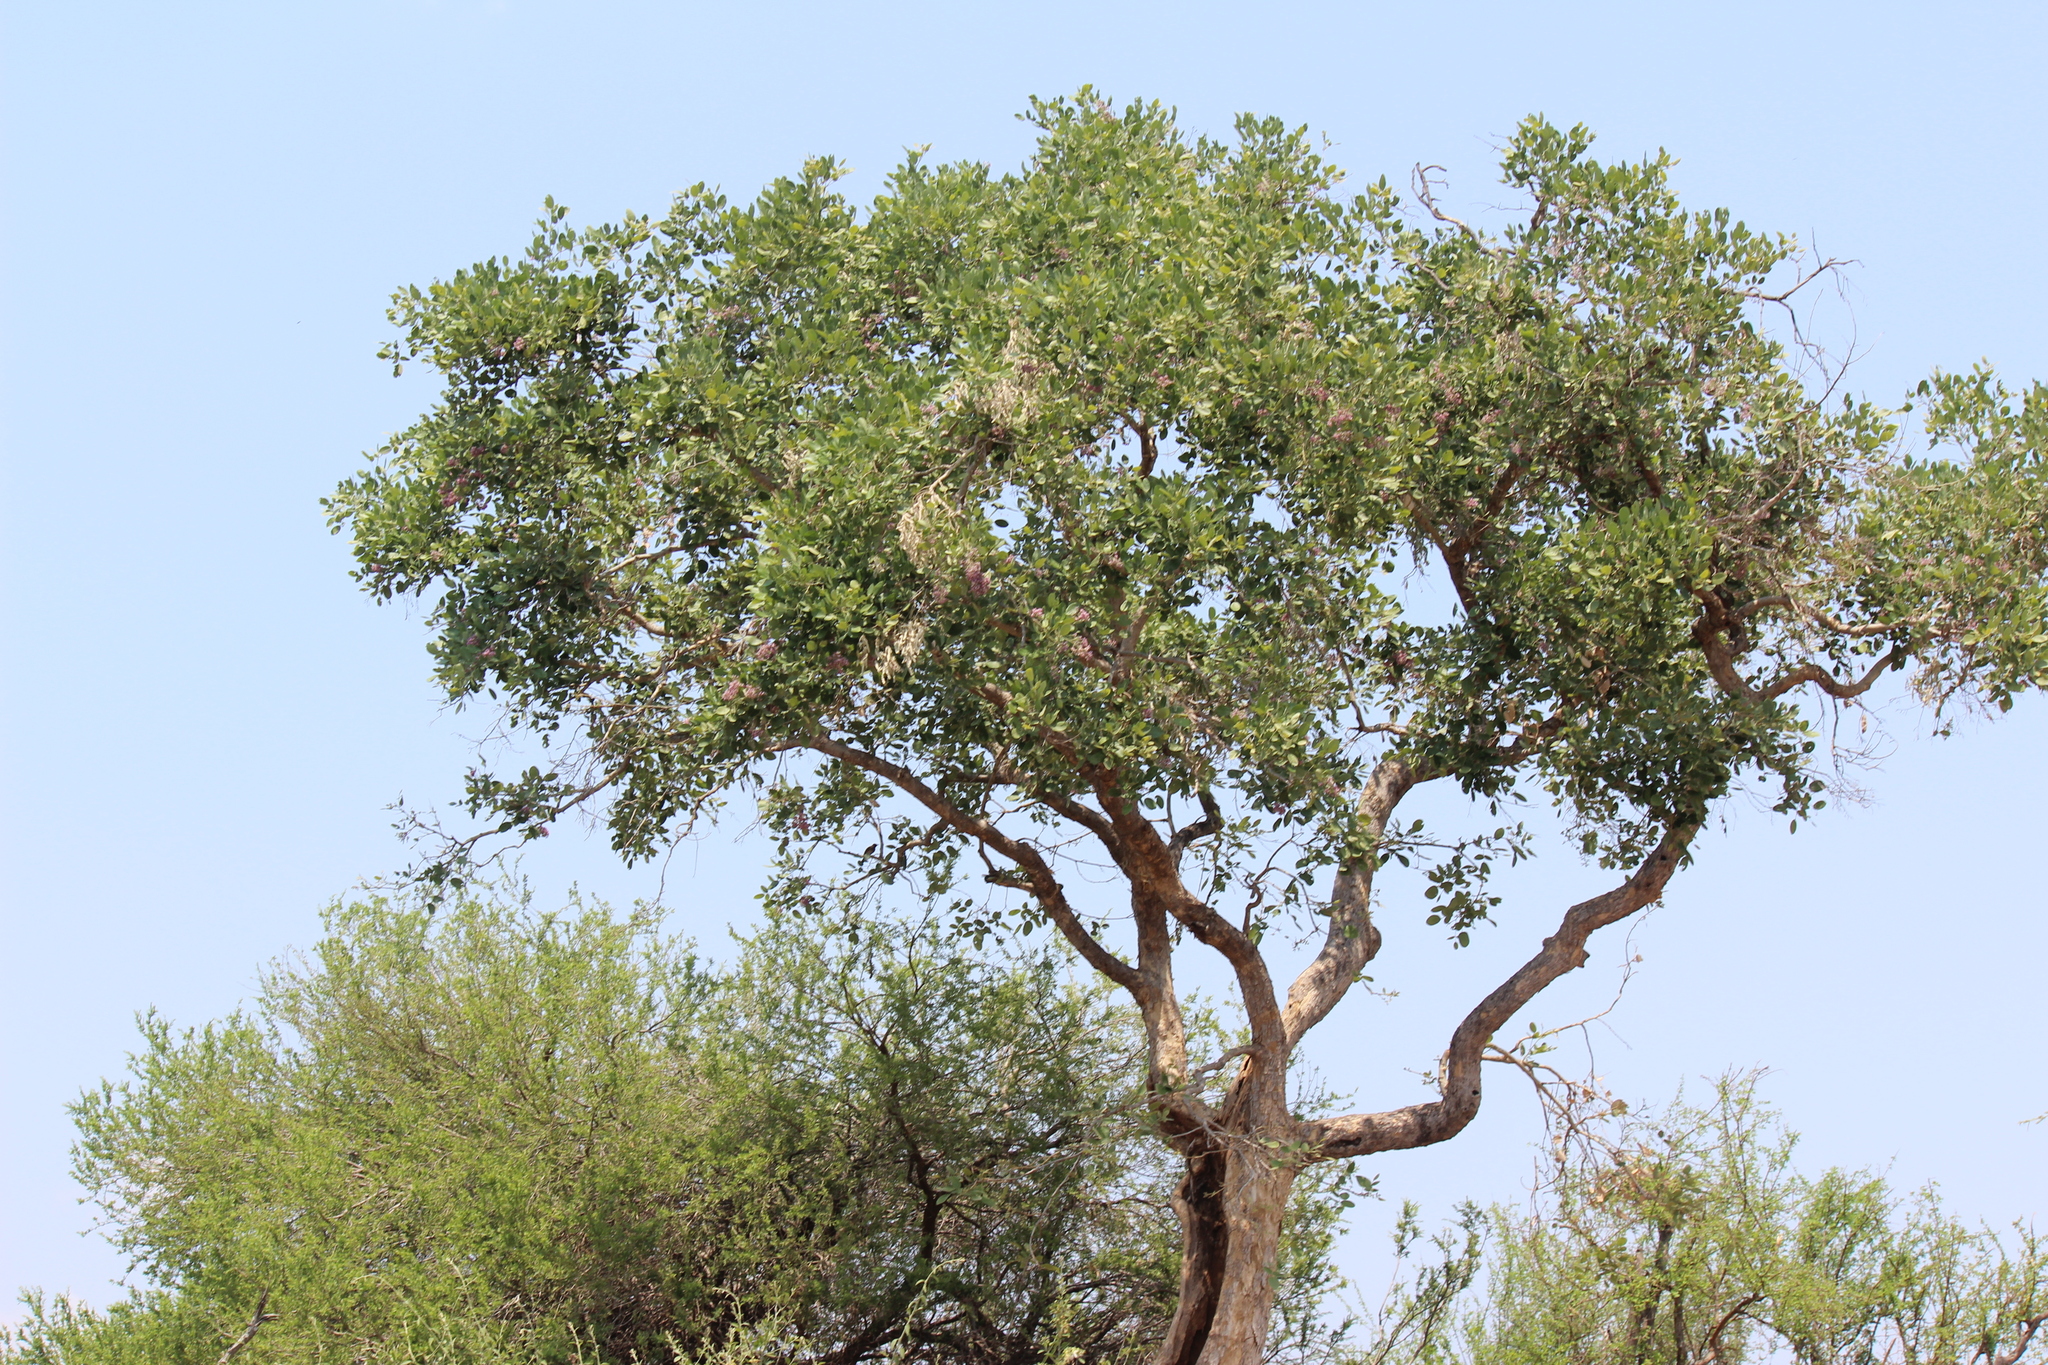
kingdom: Plantae
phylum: Tracheophyta
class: Magnoliopsida
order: Fabales
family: Fabaceae
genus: Philenoptera
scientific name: Philenoptera violacea
